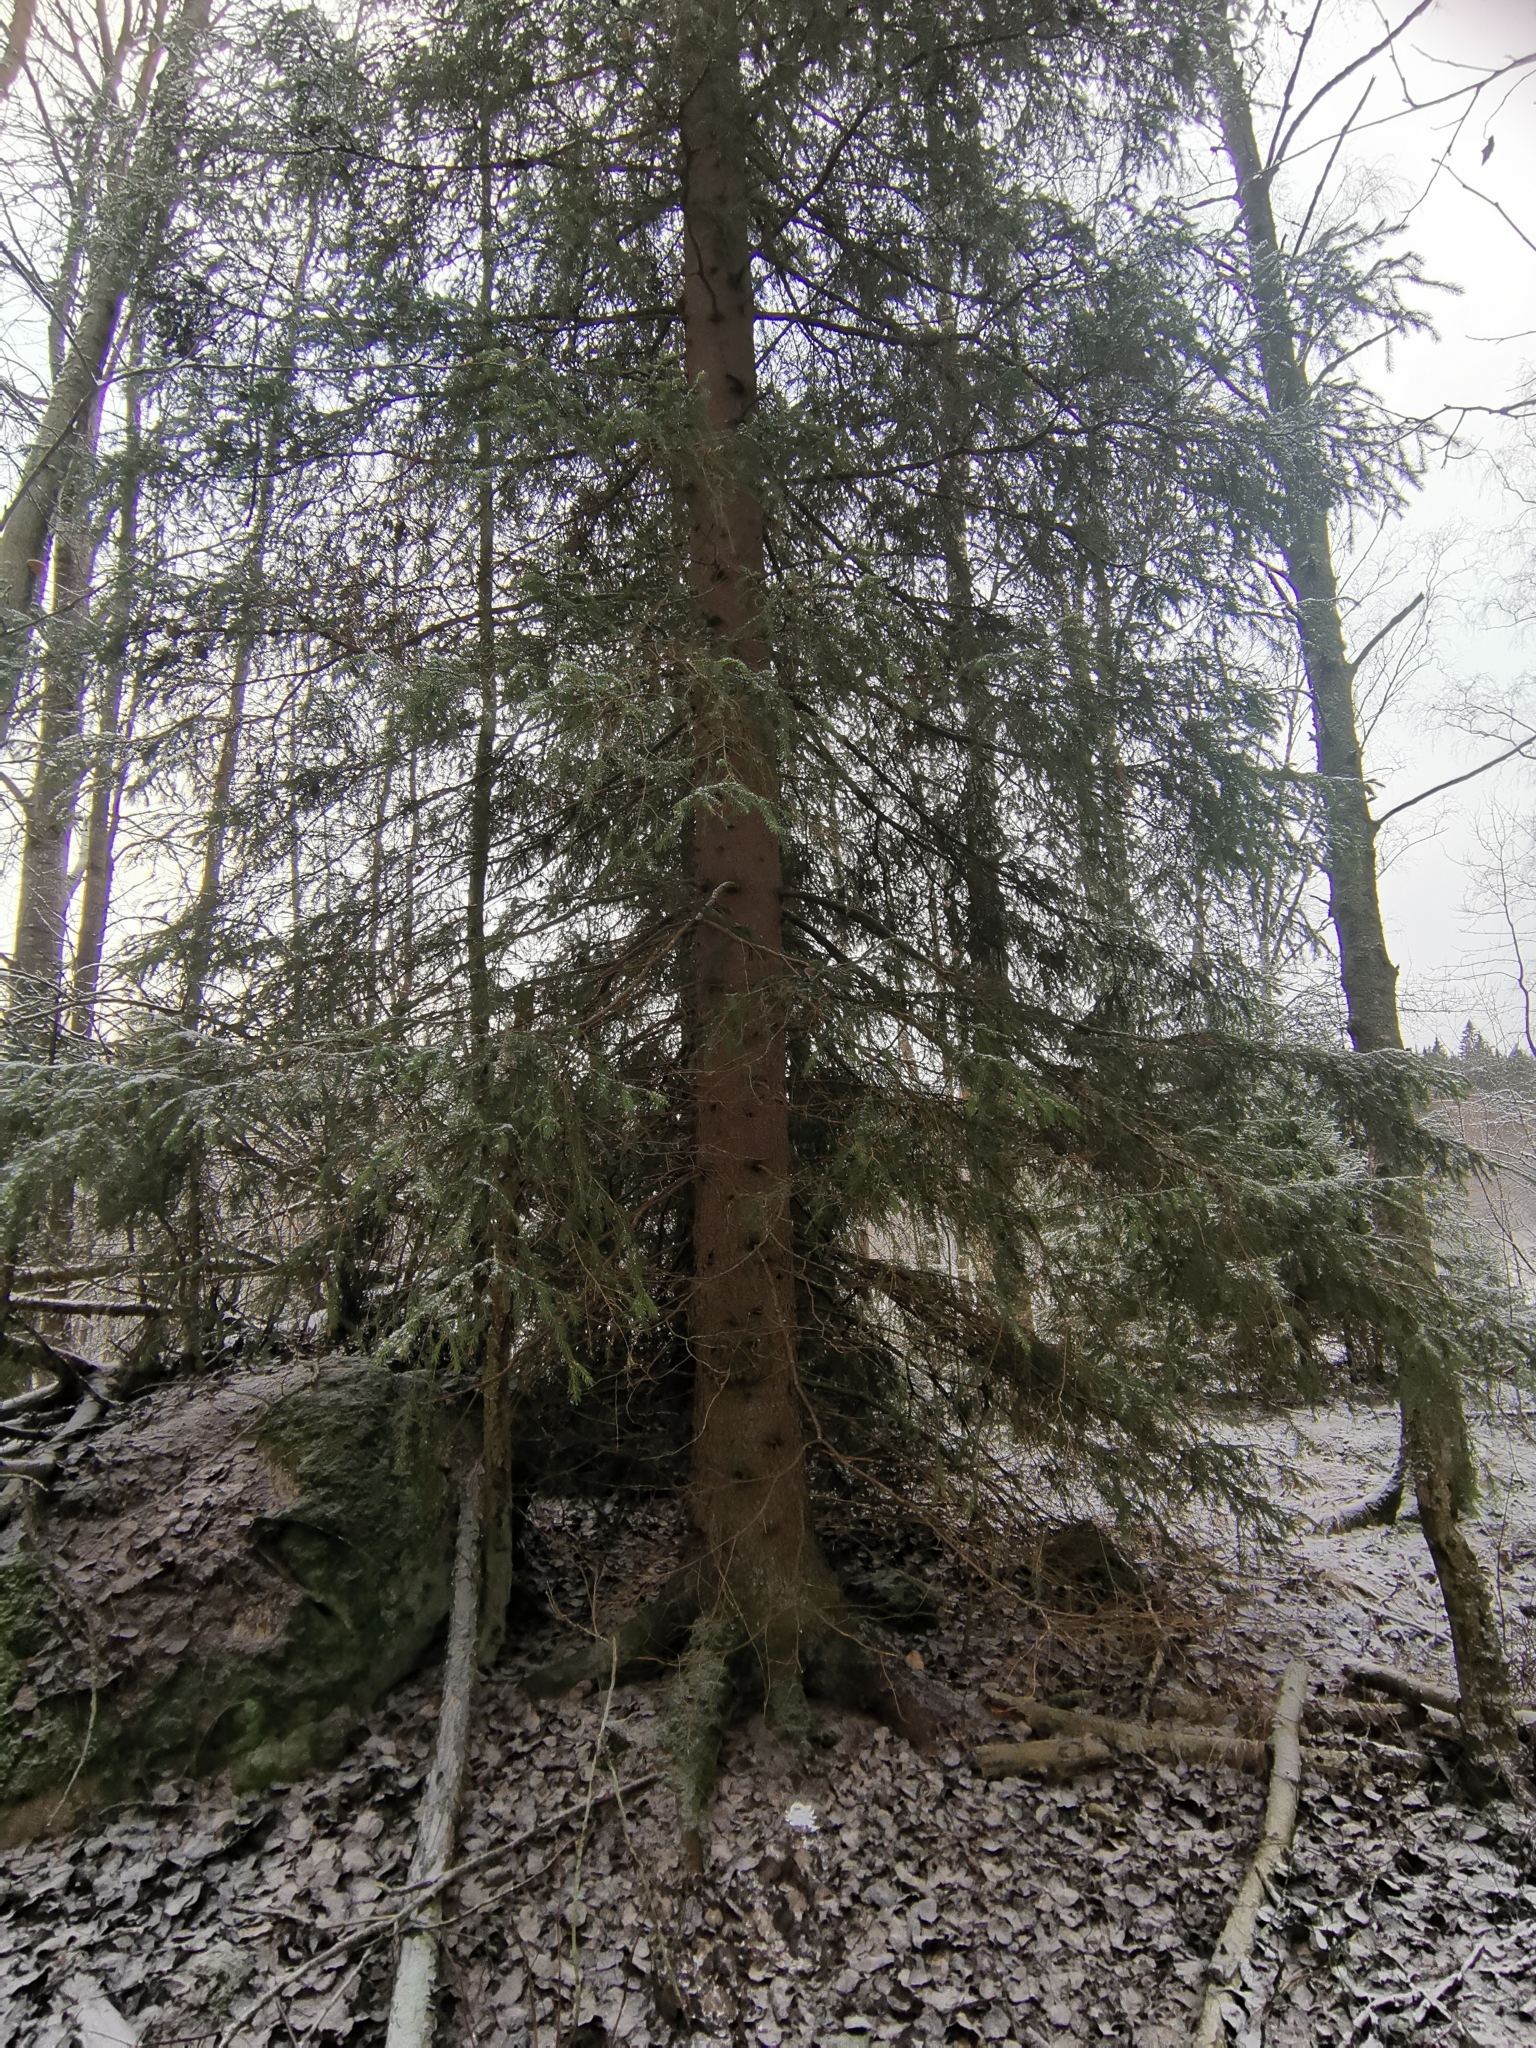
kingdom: Animalia
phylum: Chordata
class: Mammalia
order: Rodentia
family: Sciuridae
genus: Pteromys
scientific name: Pteromys volans
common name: Siberian flying squirrel
